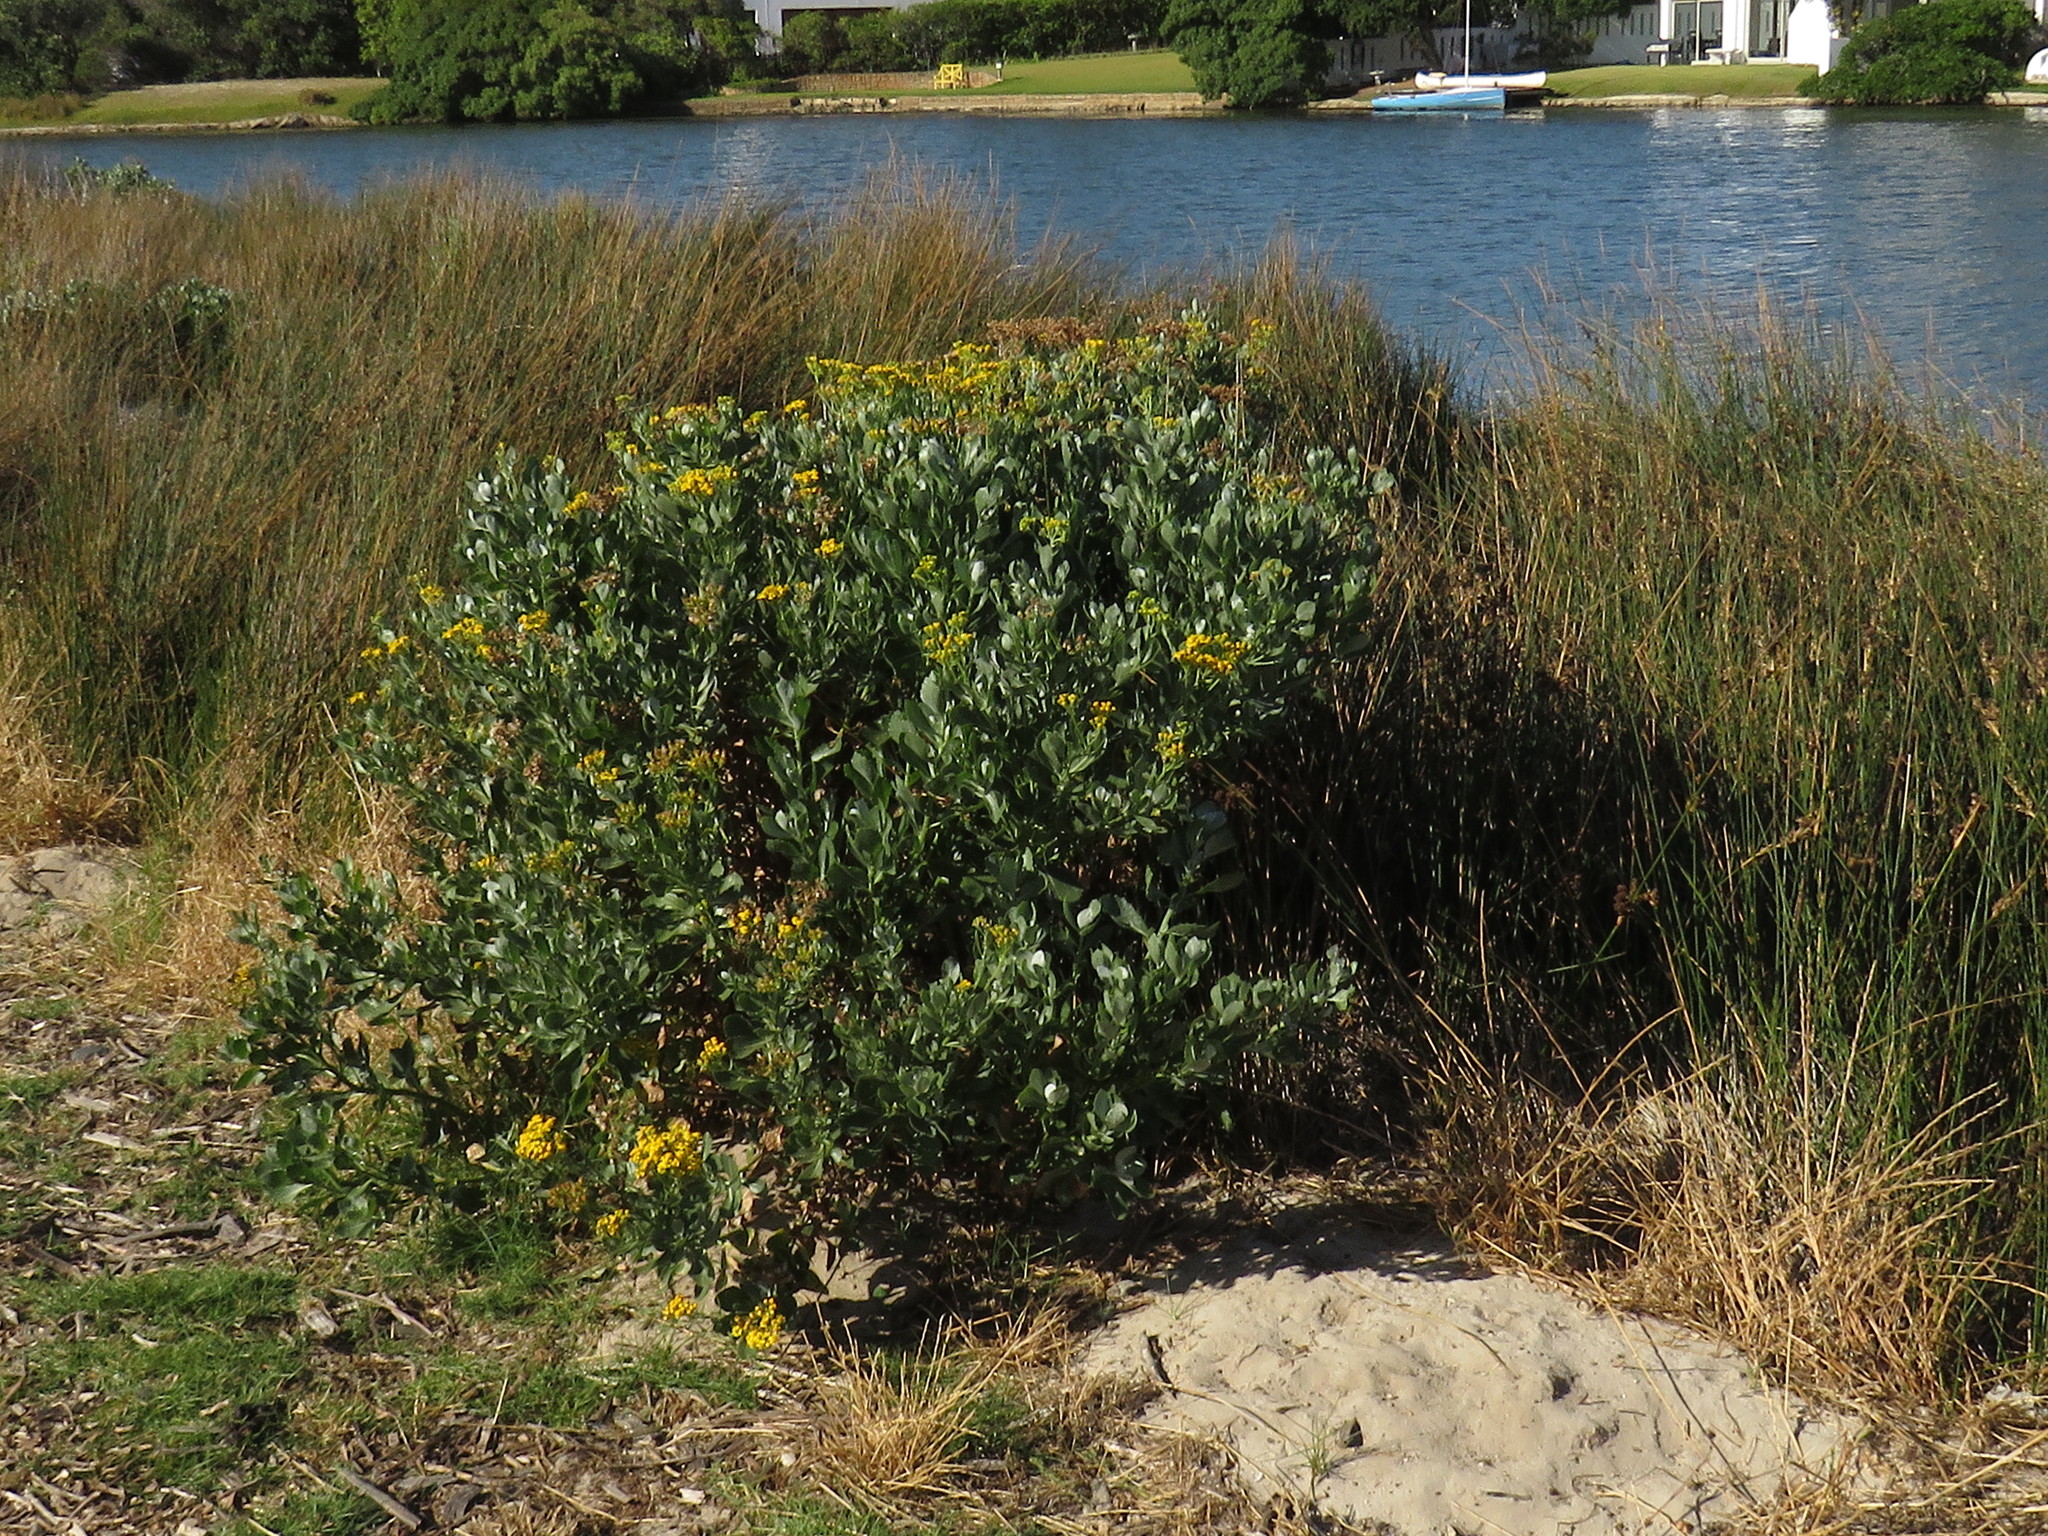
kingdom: Plantae
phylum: Tracheophyta
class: Magnoliopsida
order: Asterales
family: Asteraceae
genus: Senecio
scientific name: Senecio halimifolius
